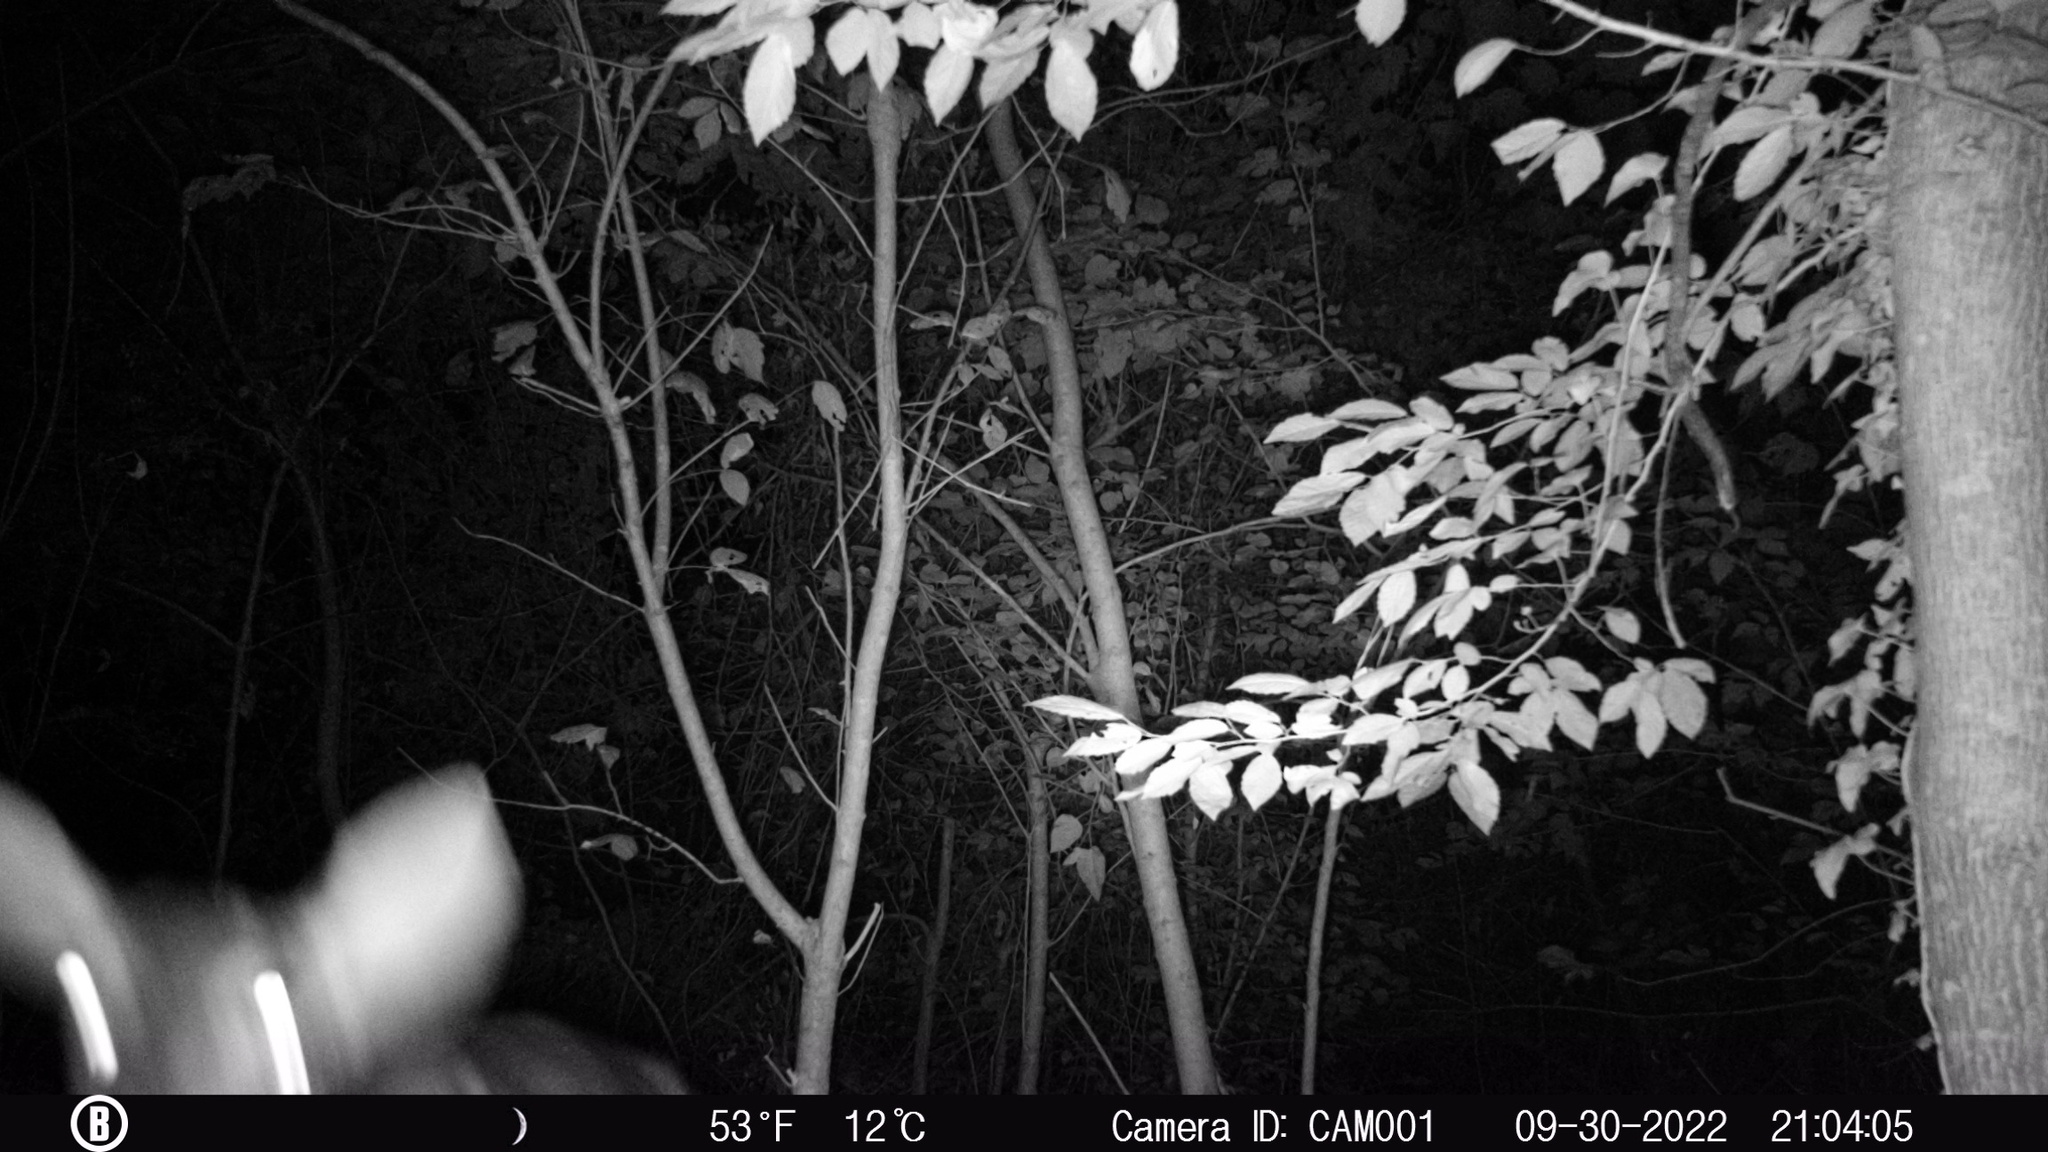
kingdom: Animalia
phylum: Chordata
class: Mammalia
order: Artiodactyla
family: Cervidae
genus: Odocoileus
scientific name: Odocoileus virginianus
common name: White-tailed deer
